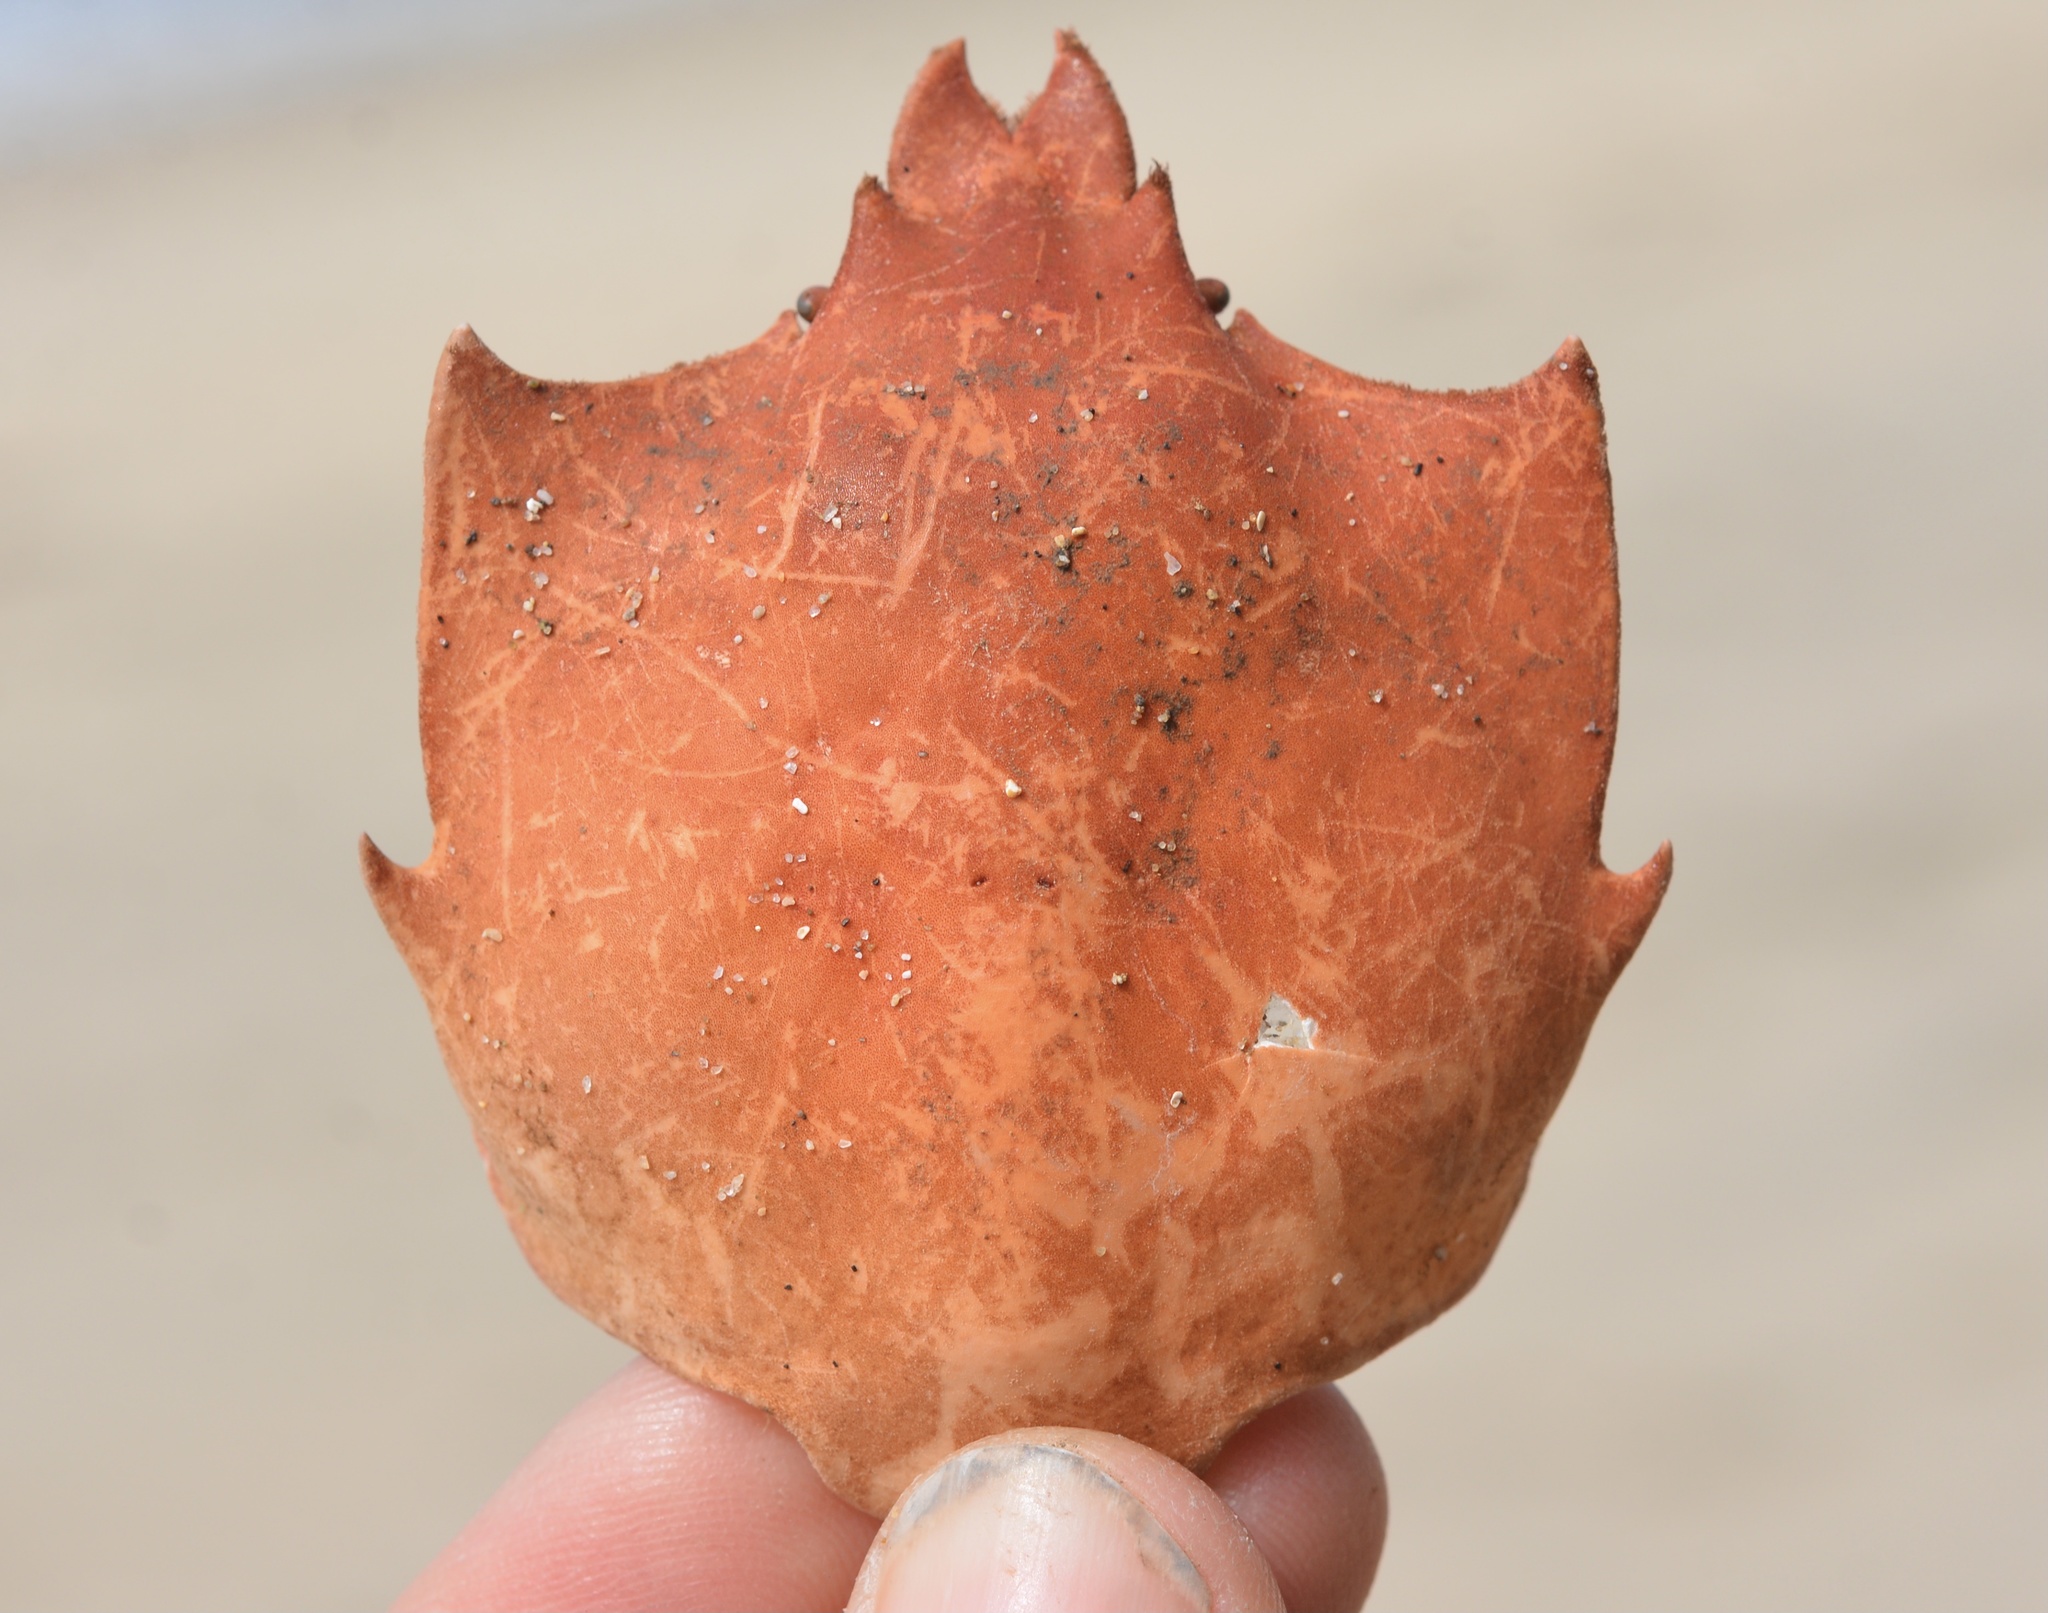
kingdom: Animalia
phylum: Arthropoda
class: Malacostraca
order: Decapoda
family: Epialtidae
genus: Pugettia
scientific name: Pugettia producta
